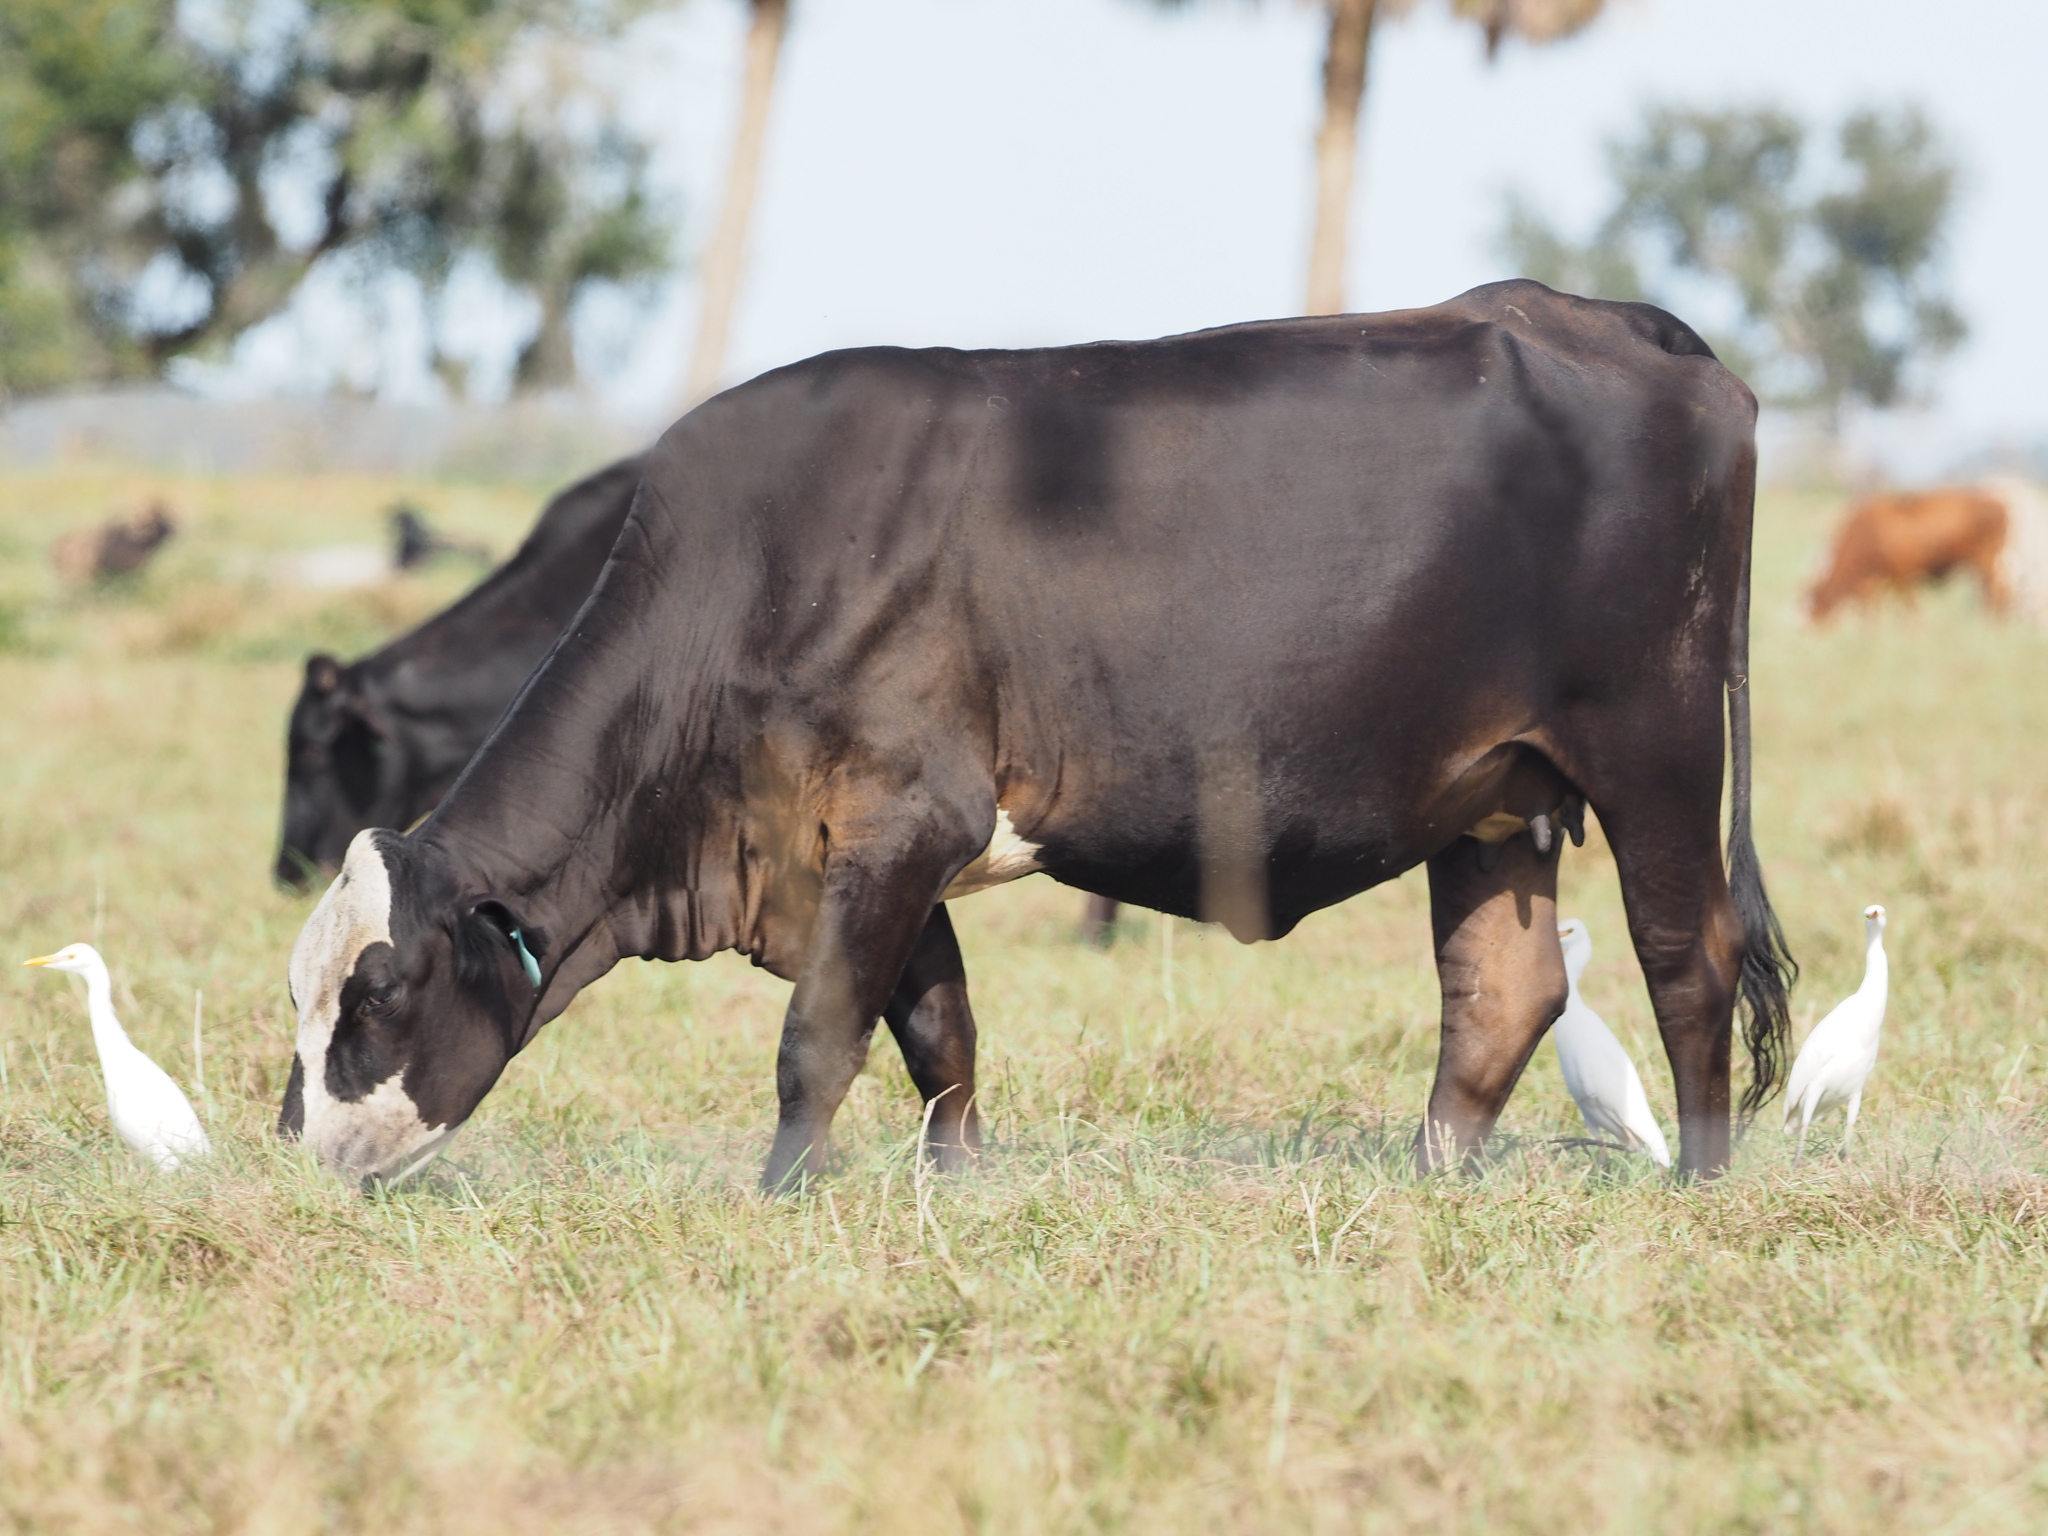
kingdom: Animalia
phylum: Chordata
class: Aves
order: Pelecaniformes
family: Ardeidae
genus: Bubulcus
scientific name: Bubulcus ibis
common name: Cattle egret
